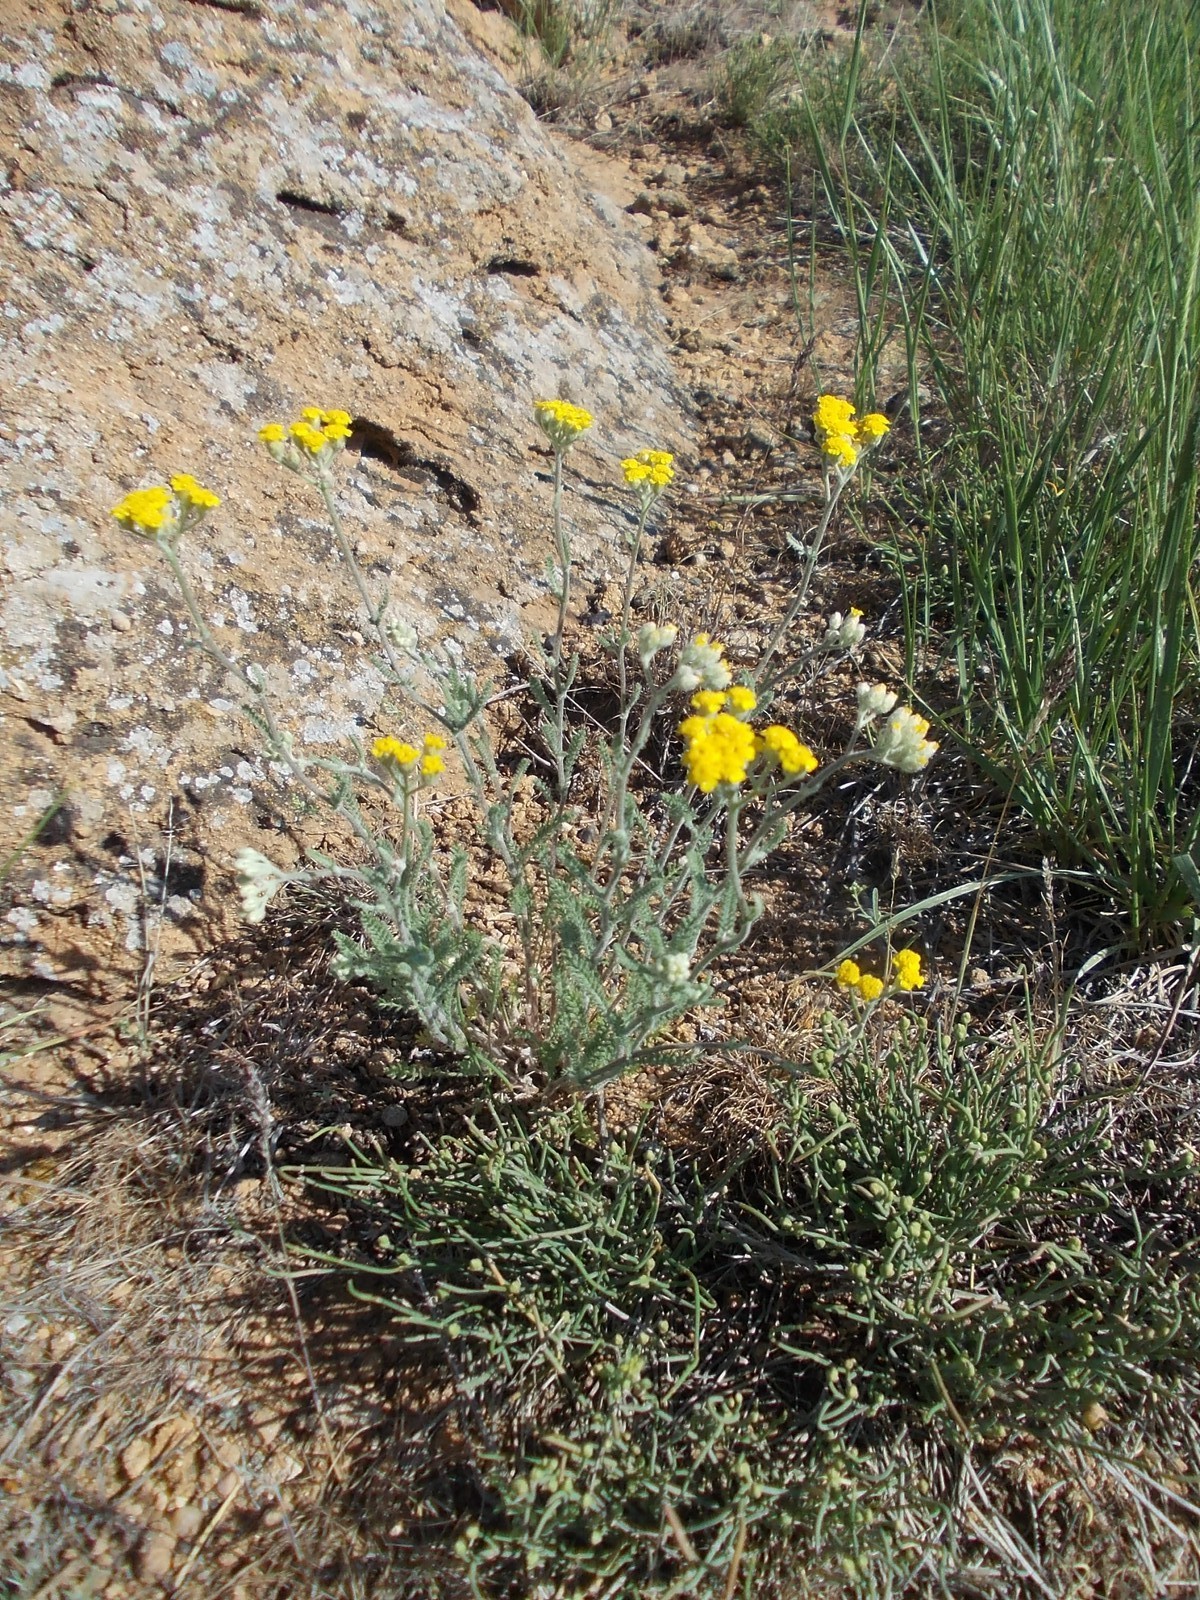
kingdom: Plantae
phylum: Tracheophyta
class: Magnoliopsida
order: Asterales
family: Asteraceae
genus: Achillea
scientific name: Achillea leptophylla
